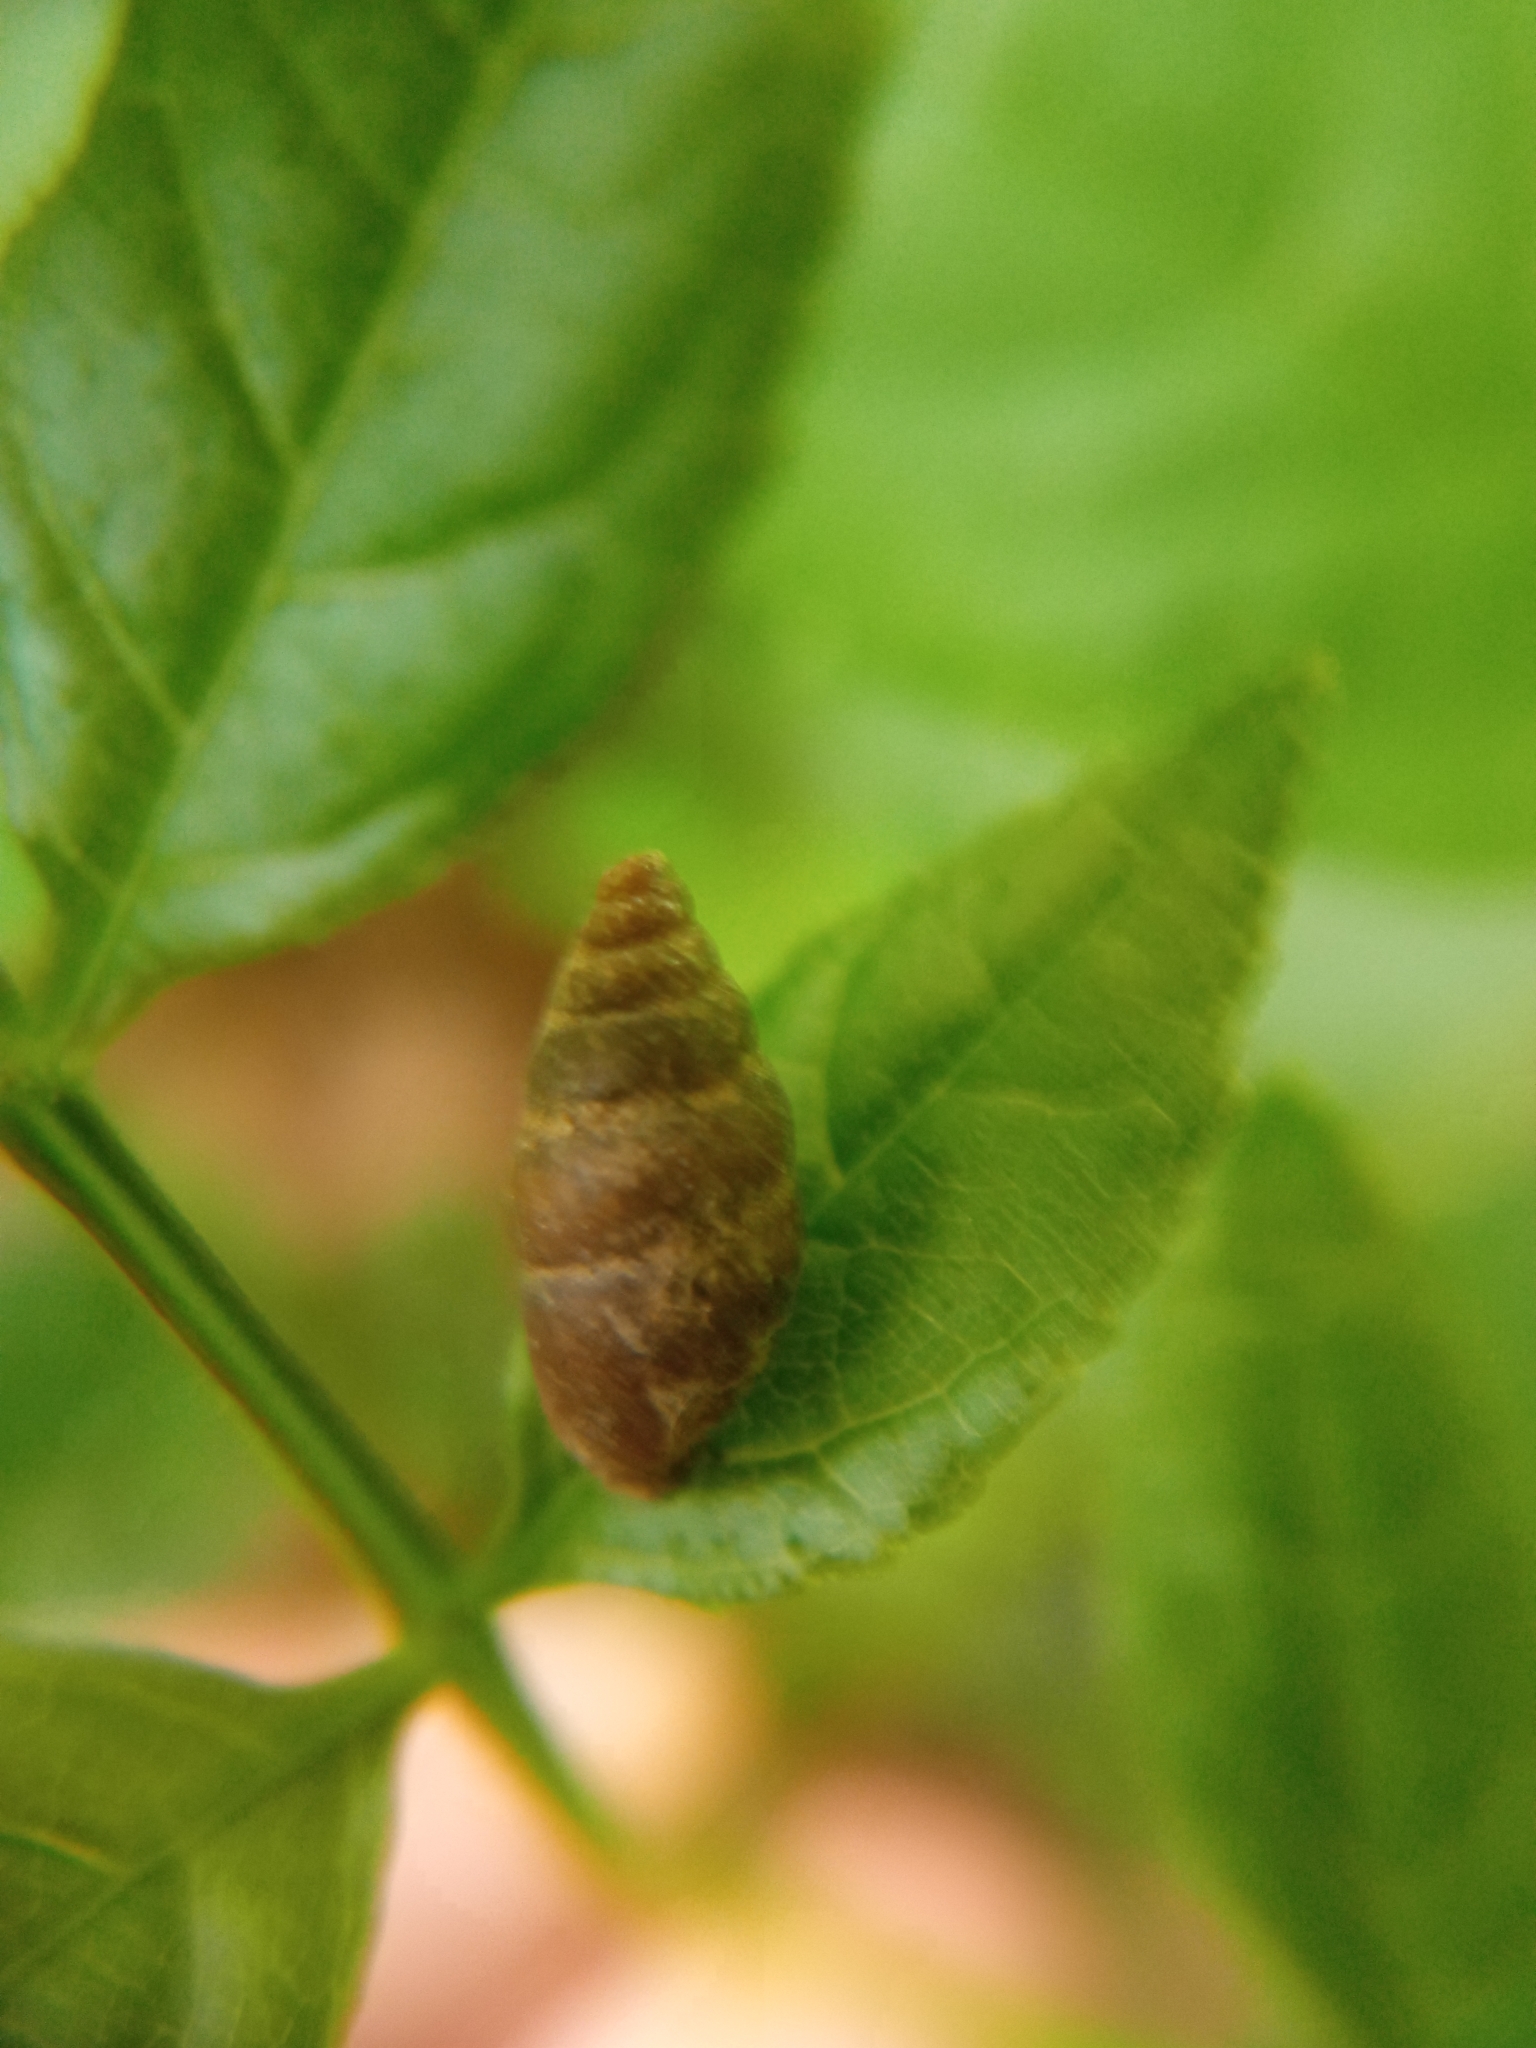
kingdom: Animalia
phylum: Mollusca
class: Gastropoda
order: Stylommatophora
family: Enidae
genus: Merdigera
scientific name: Merdigera obscura
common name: Lesser bulin
